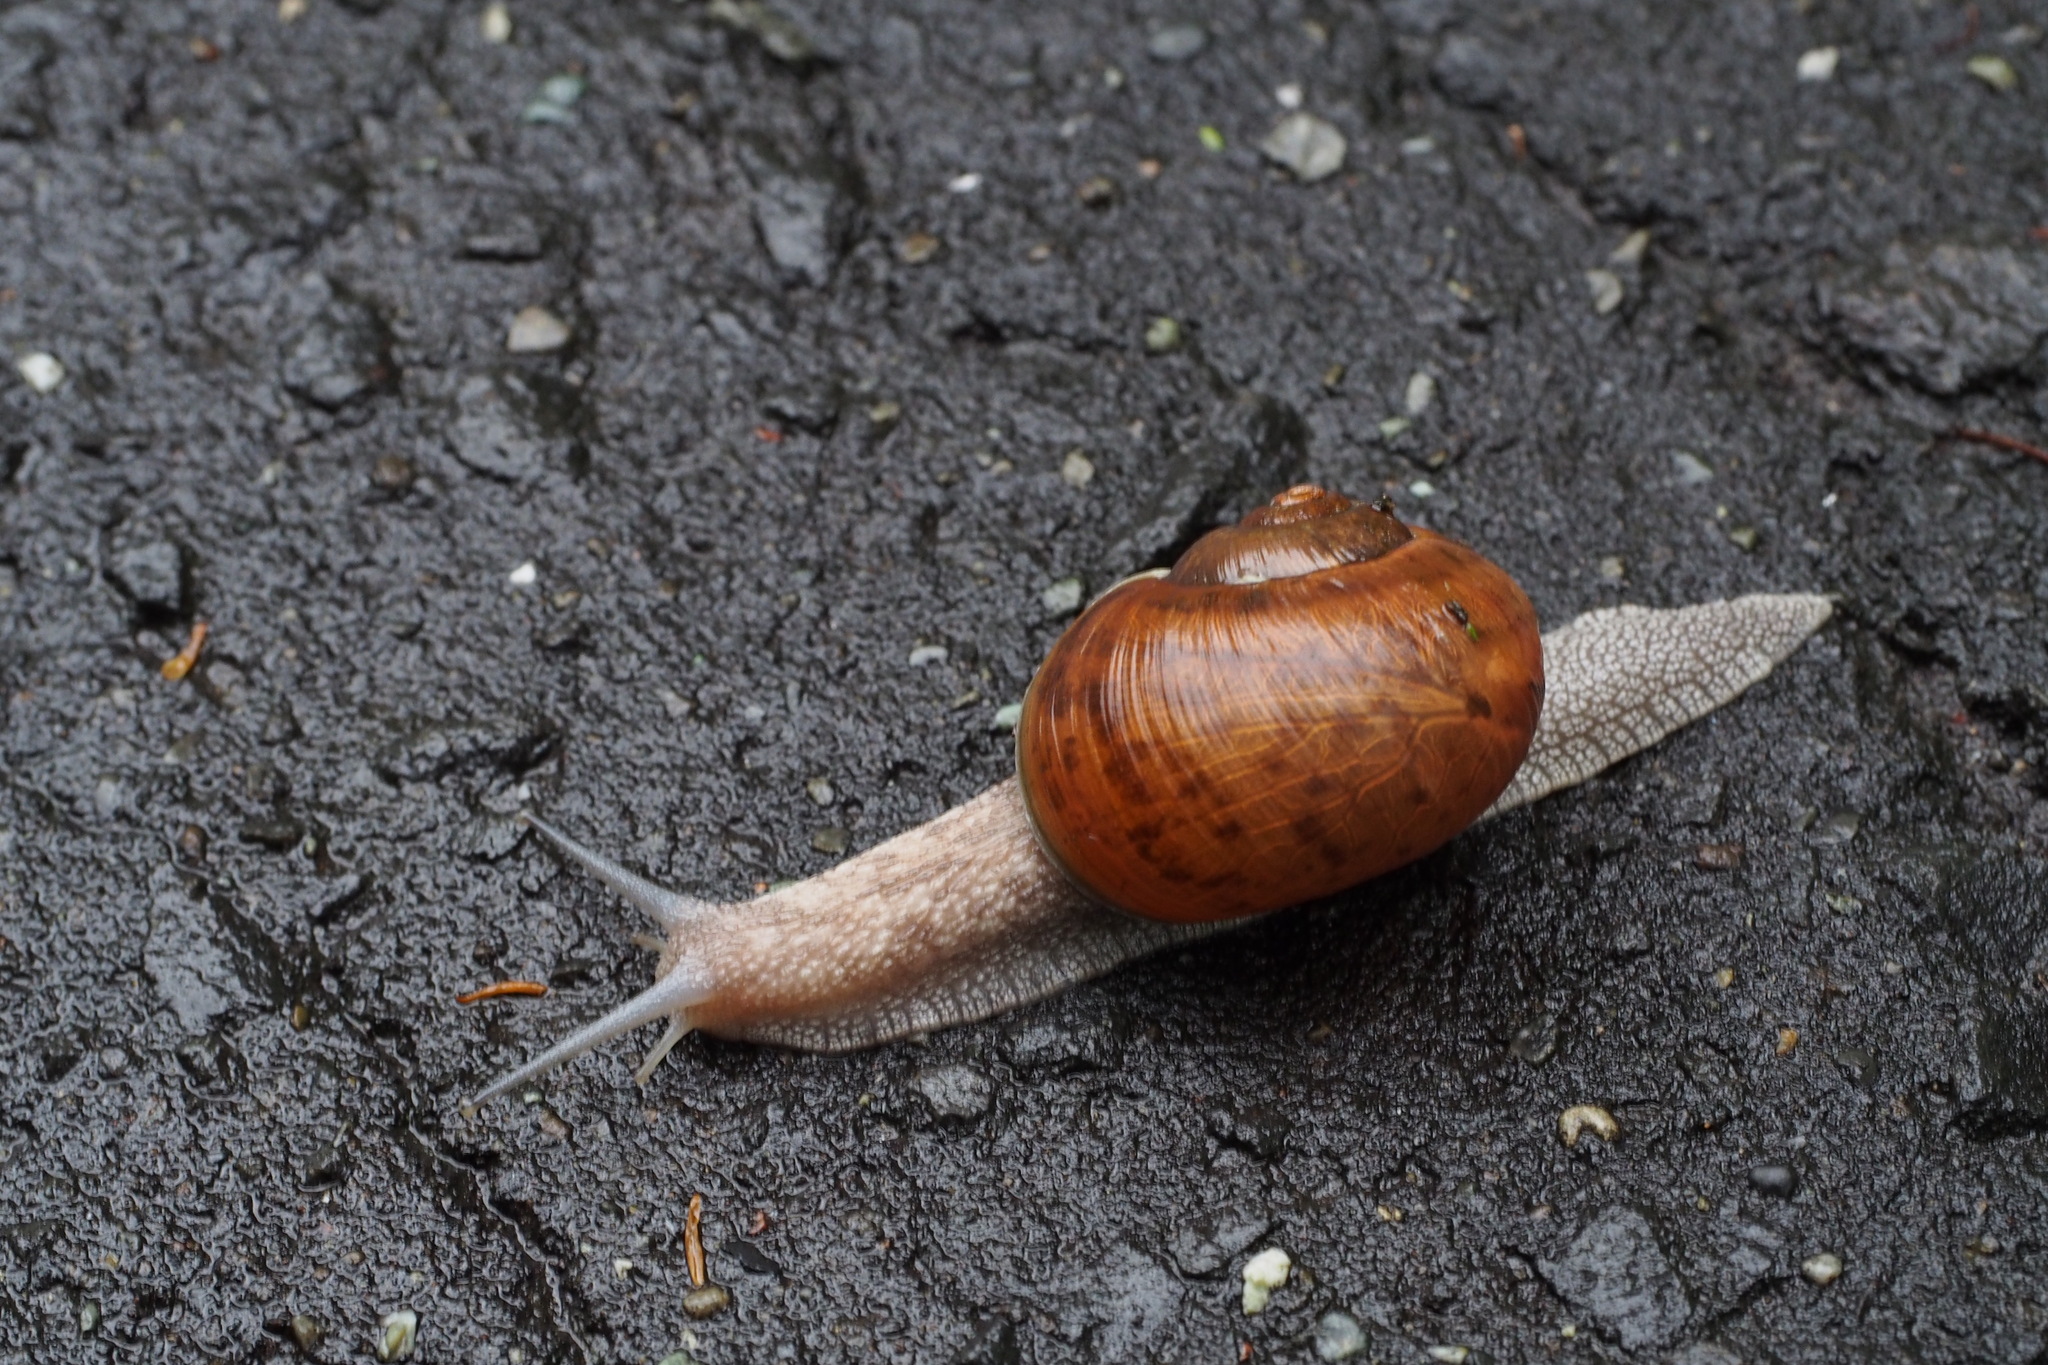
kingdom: Animalia
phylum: Mollusca
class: Gastropoda
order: Stylommatophora
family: Camaenidae
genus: Karaftohelix
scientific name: Karaftohelix gainesi
